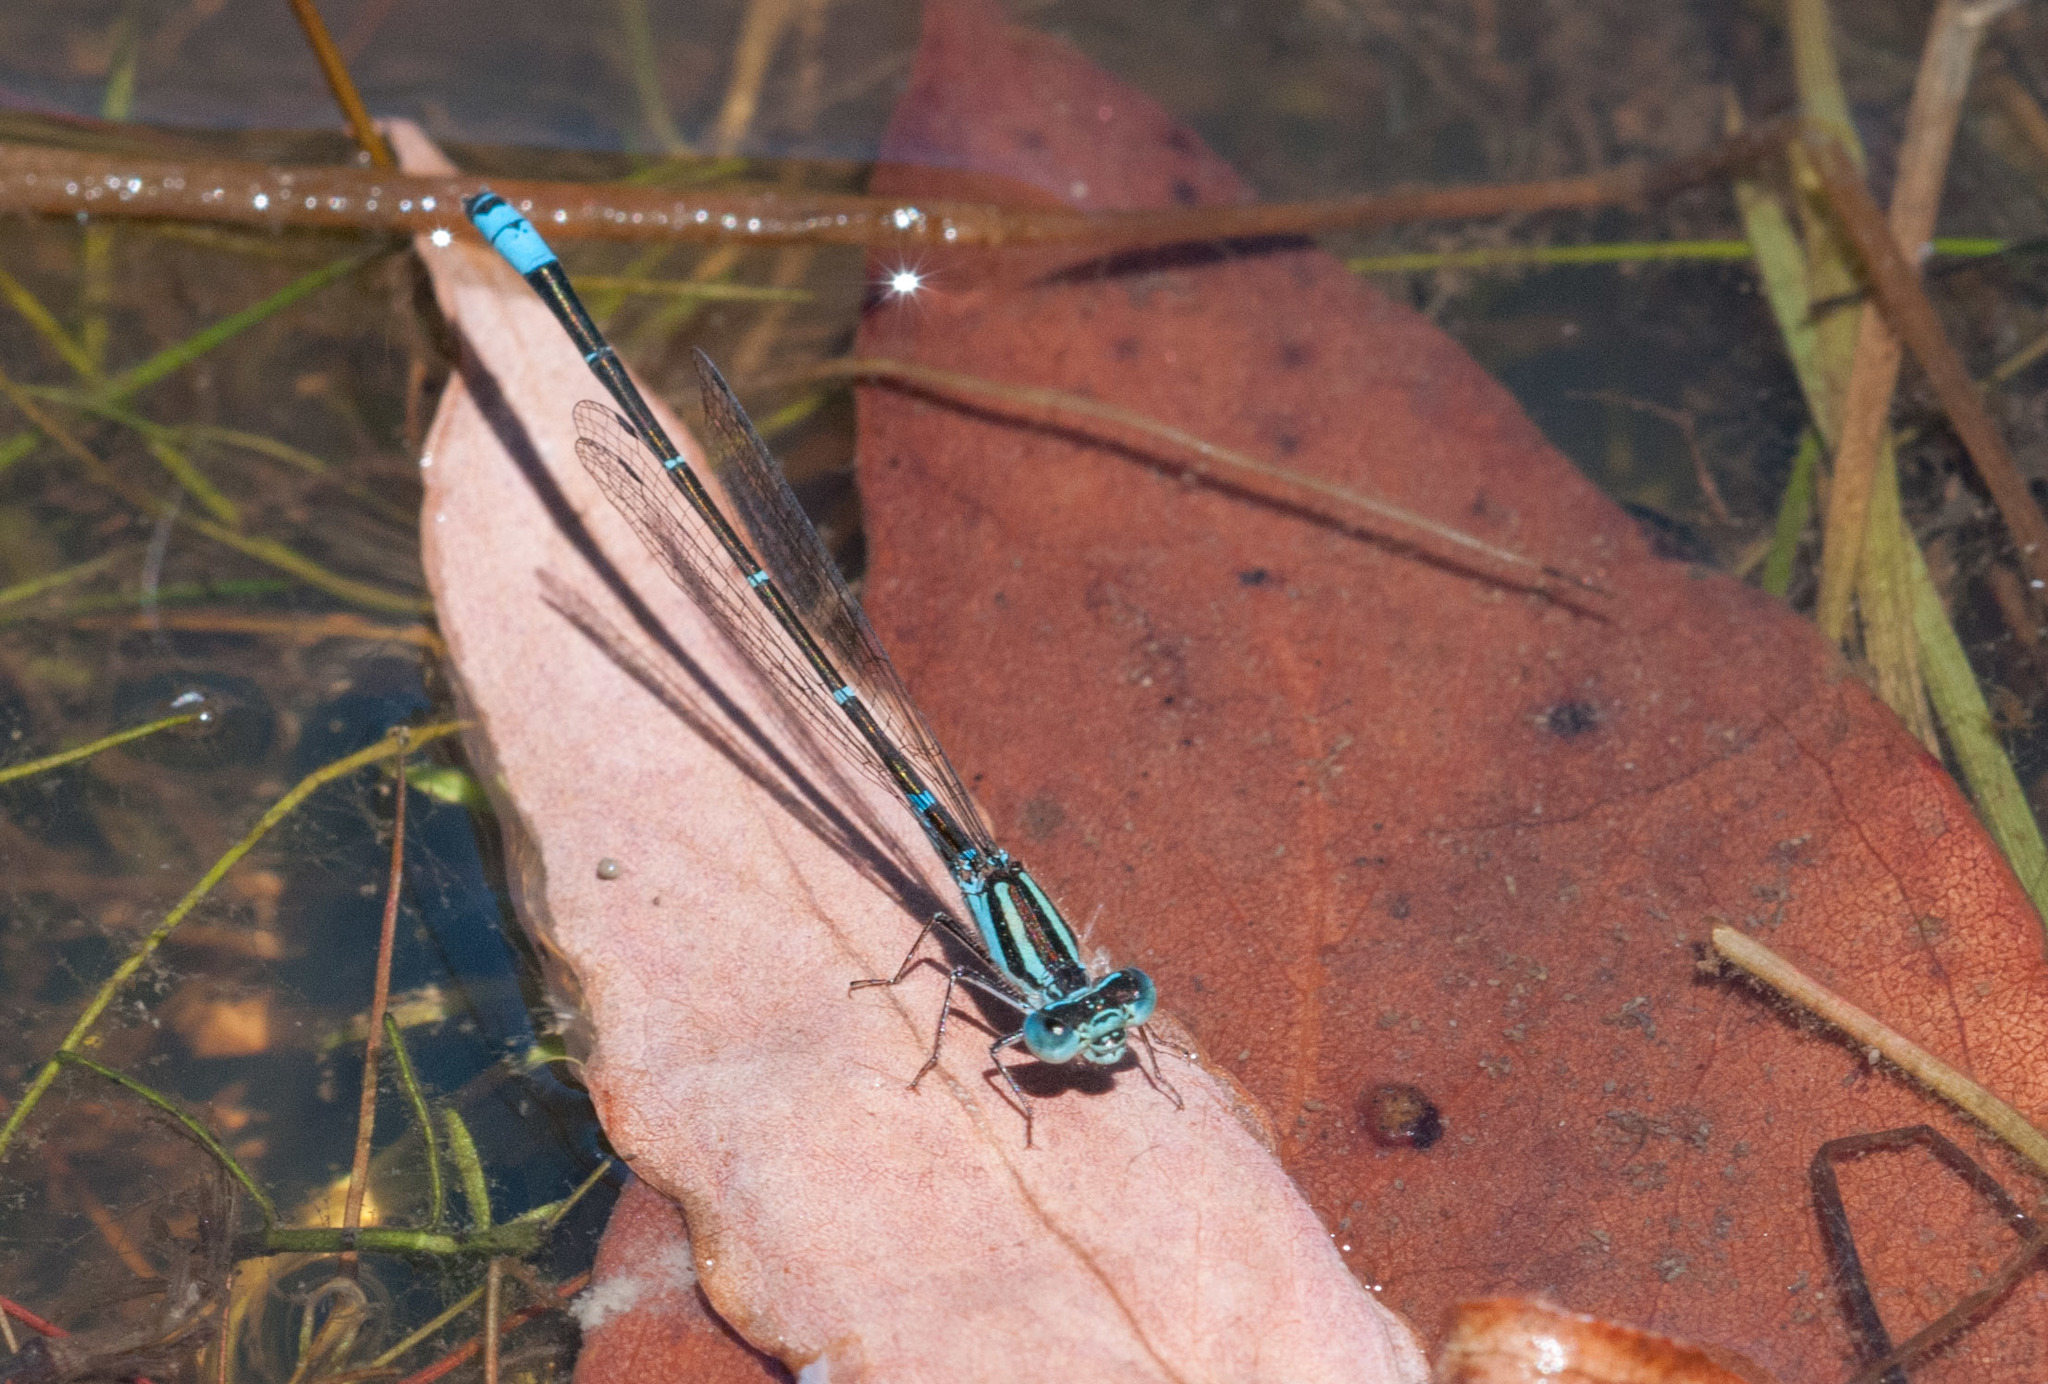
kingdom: Animalia
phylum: Arthropoda
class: Insecta
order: Odonata
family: Coenagrionidae
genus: Austroagrion
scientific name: Austroagrion watsoni
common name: Eastern billabongfly
